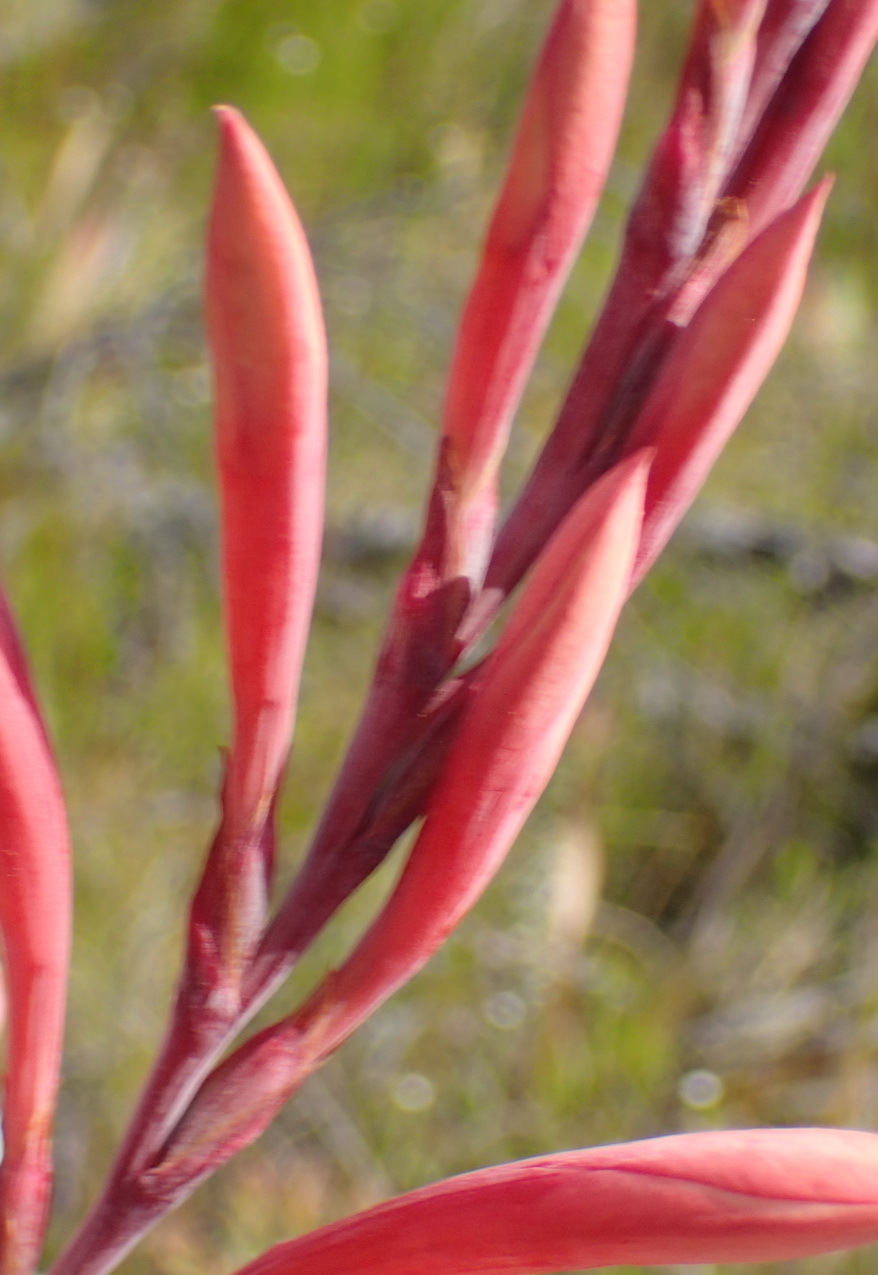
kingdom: Plantae
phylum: Tracheophyta
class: Liliopsida
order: Asparagales
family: Iridaceae
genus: Watsonia
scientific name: Watsonia fourcadei
